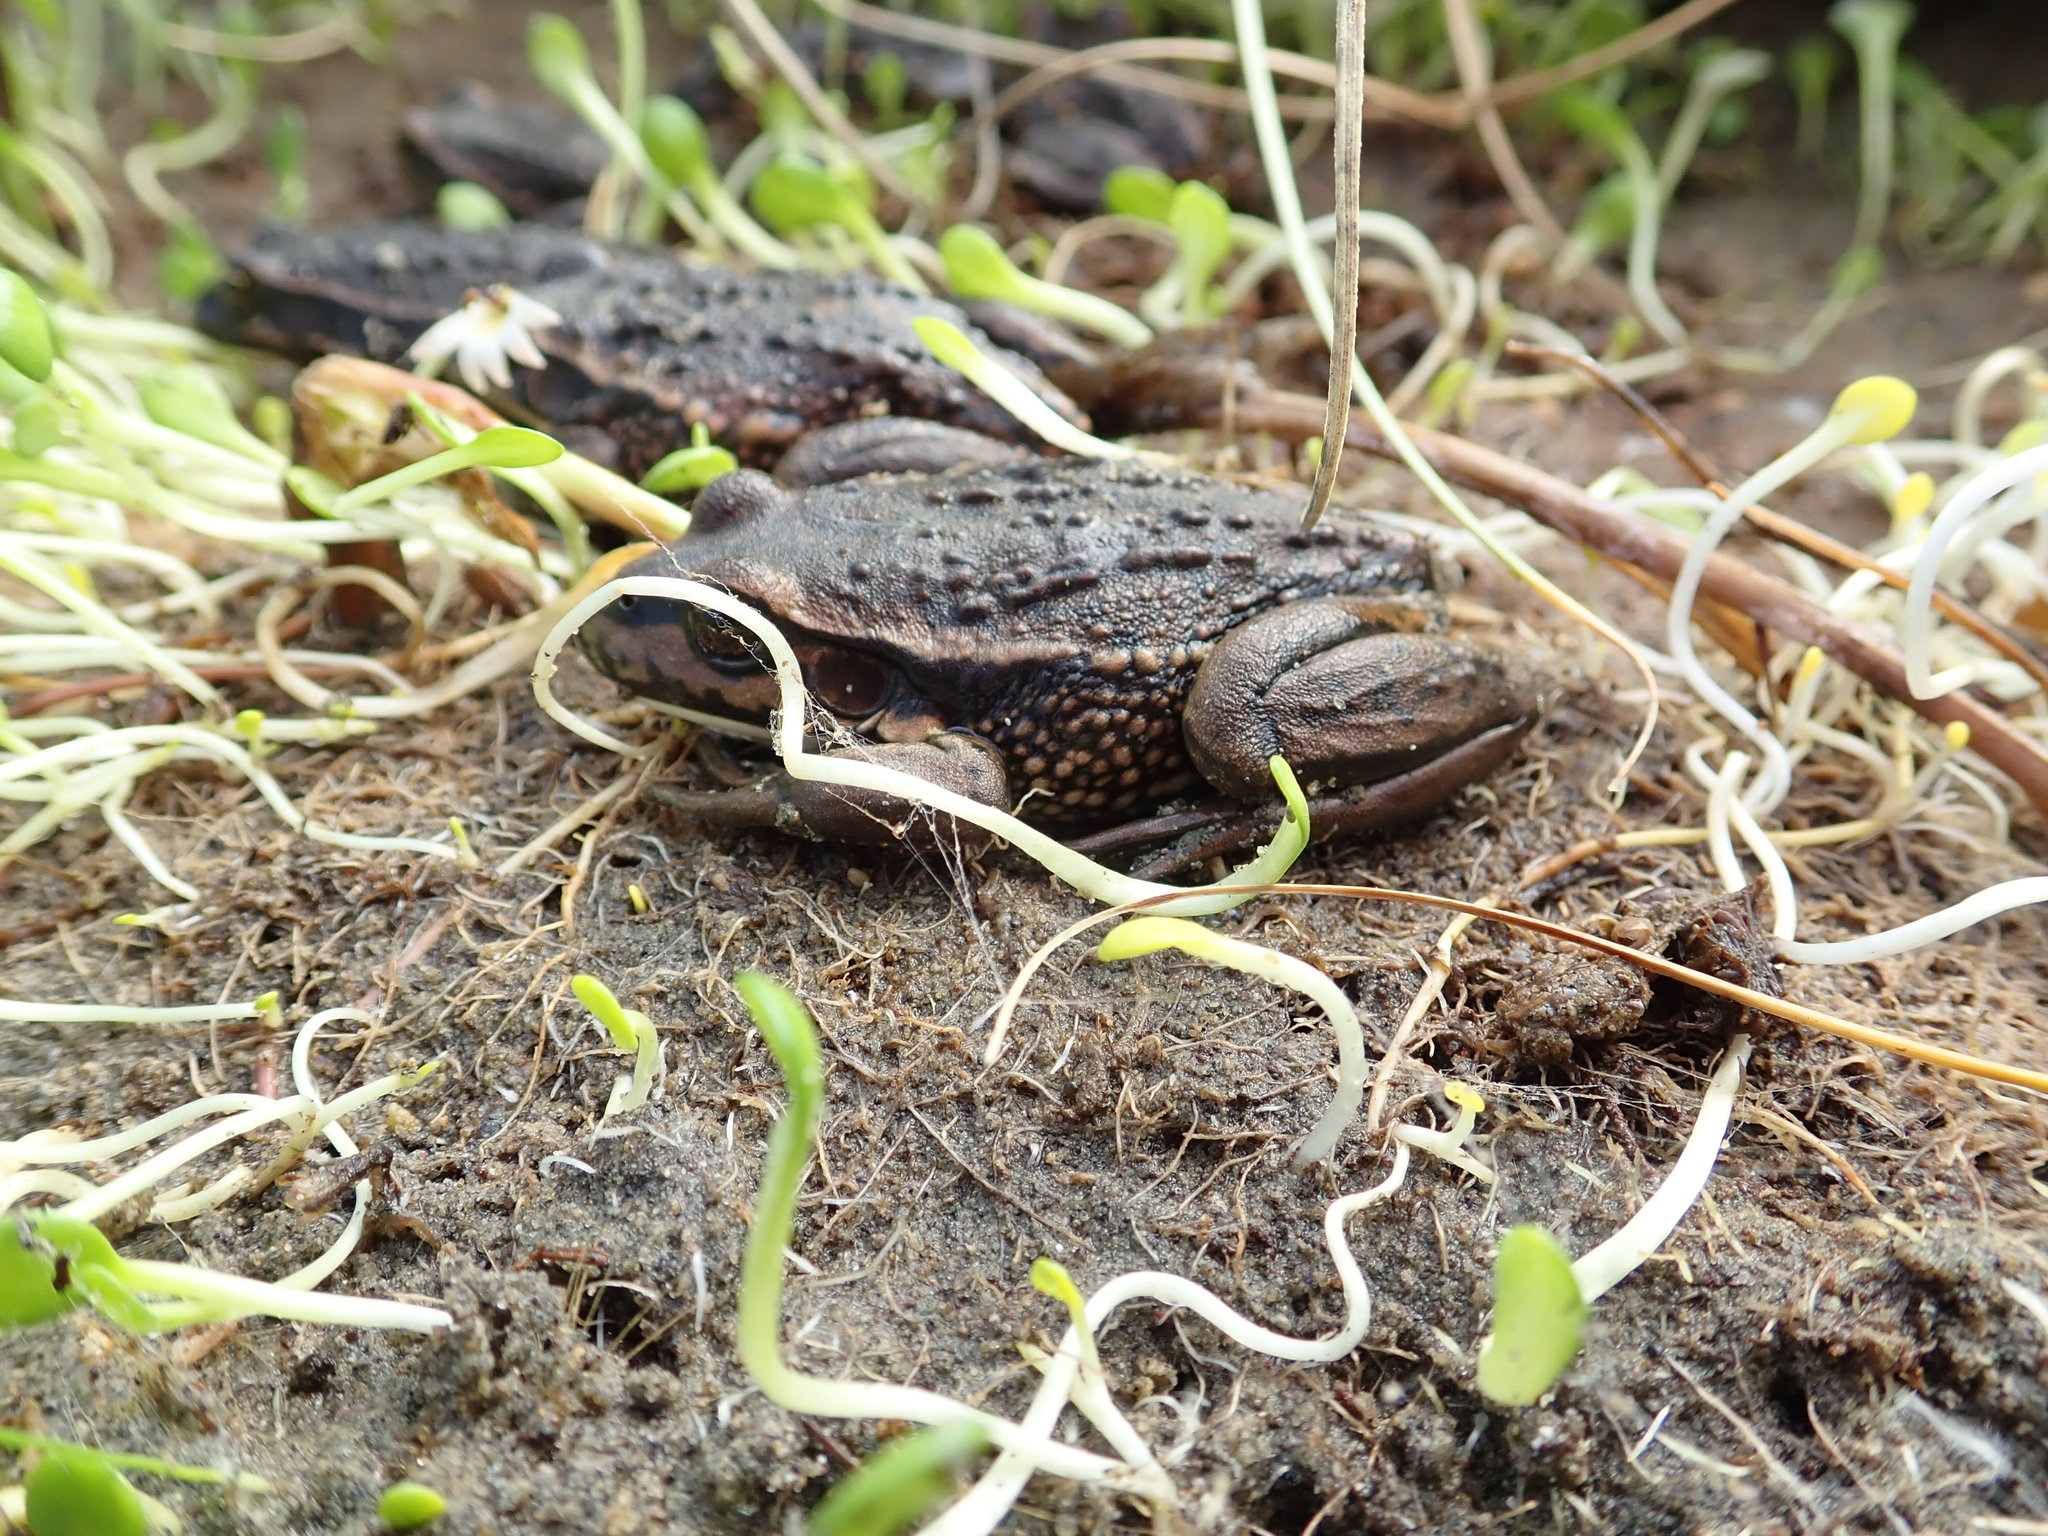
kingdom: Animalia
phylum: Chordata
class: Amphibia
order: Anura
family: Pelodryadidae
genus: Ranoidea
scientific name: Ranoidea raniformis
